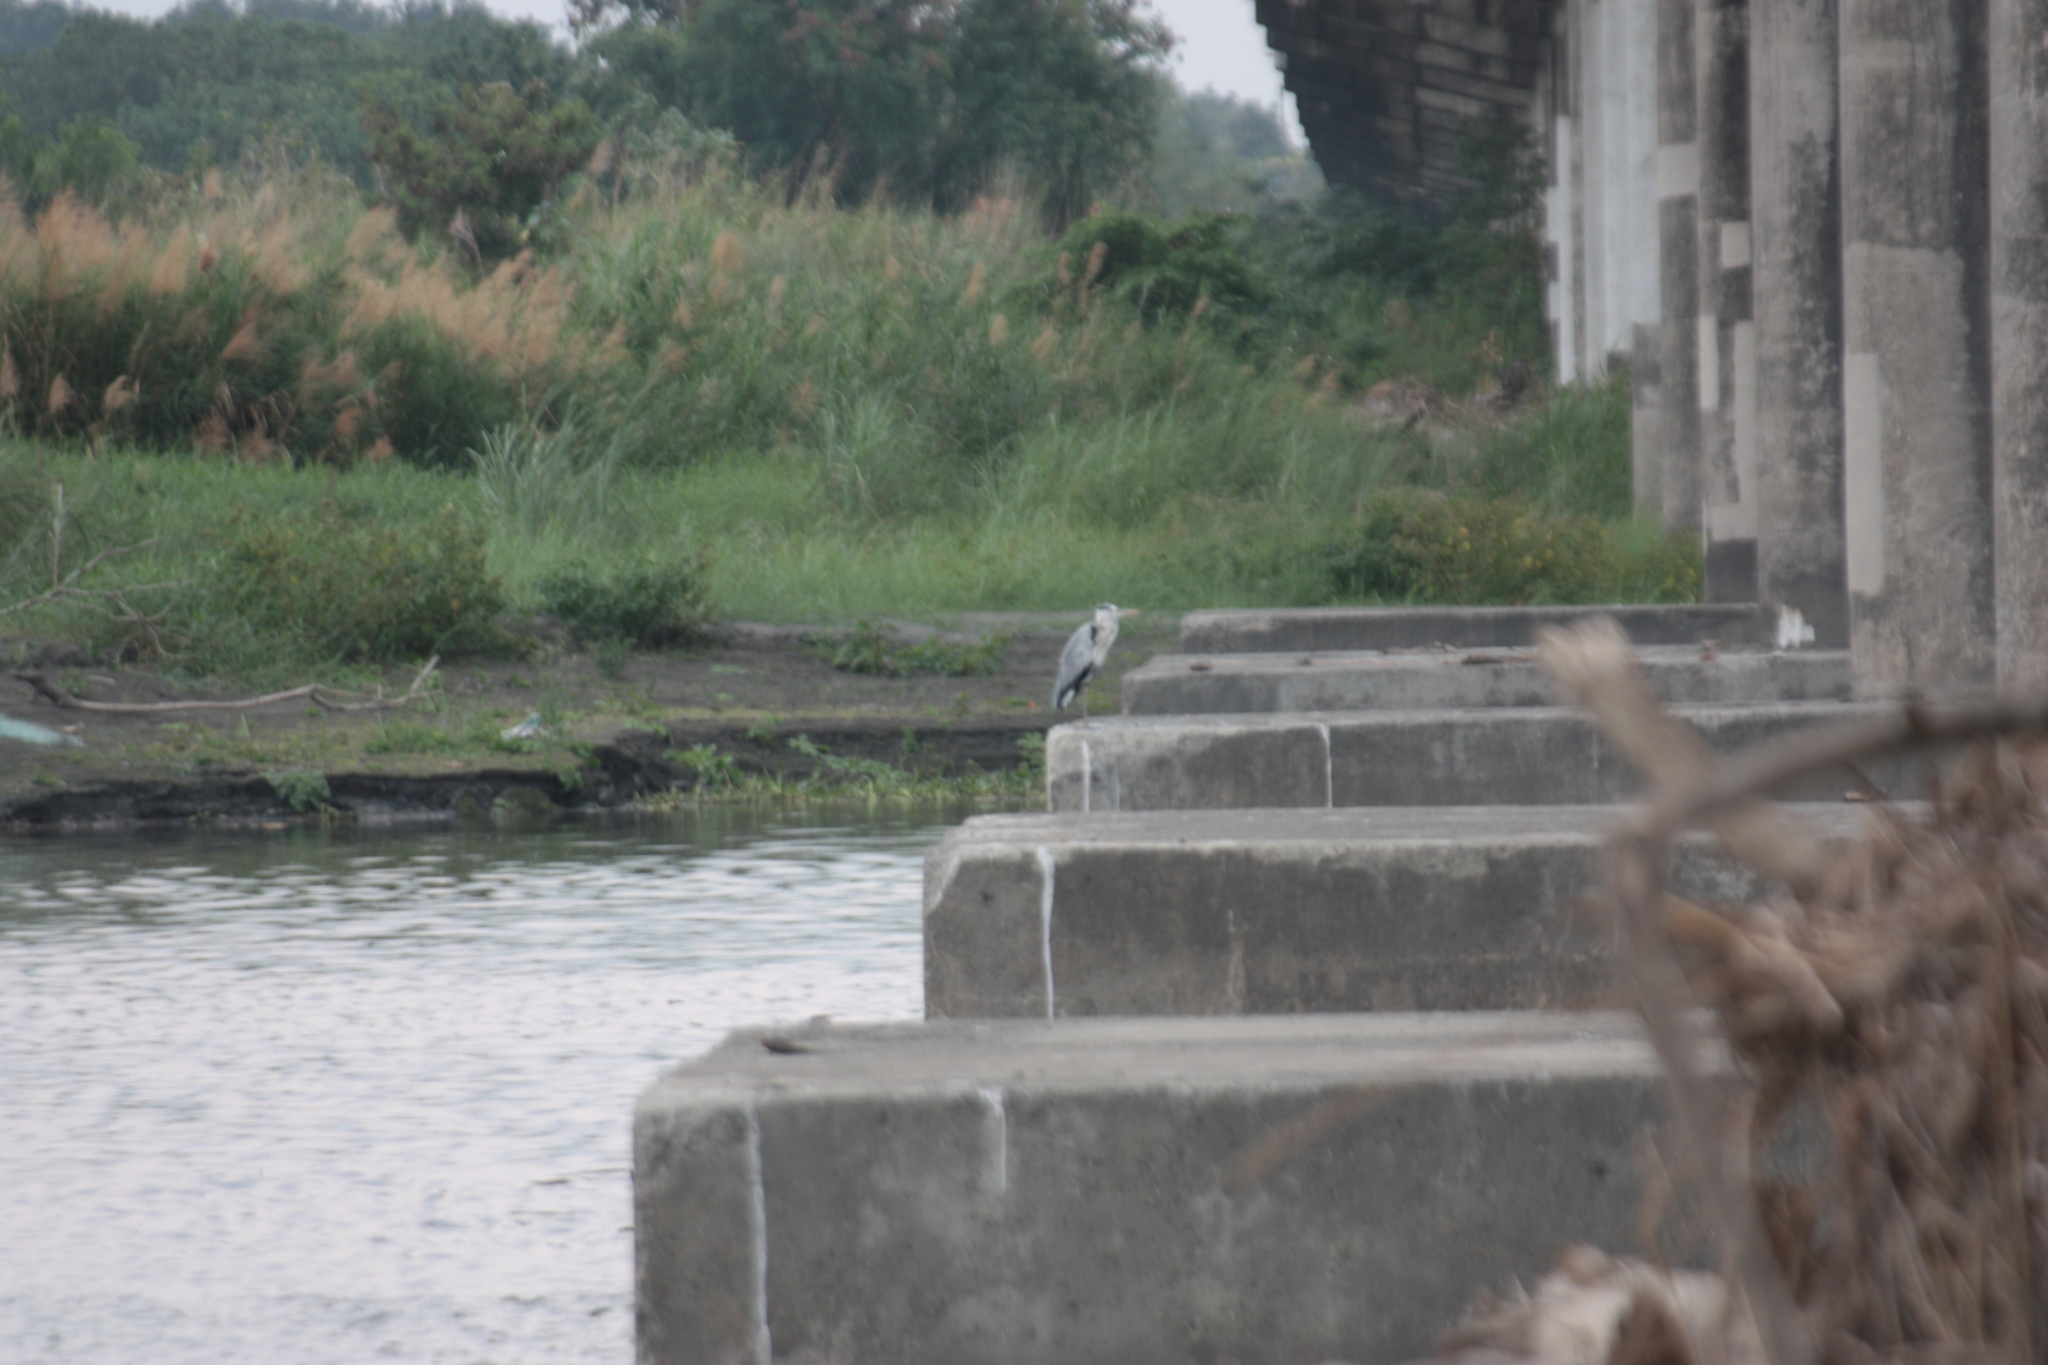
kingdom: Animalia
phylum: Chordata
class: Aves
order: Pelecaniformes
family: Ardeidae
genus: Ardea
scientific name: Ardea cinerea
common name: Grey heron
